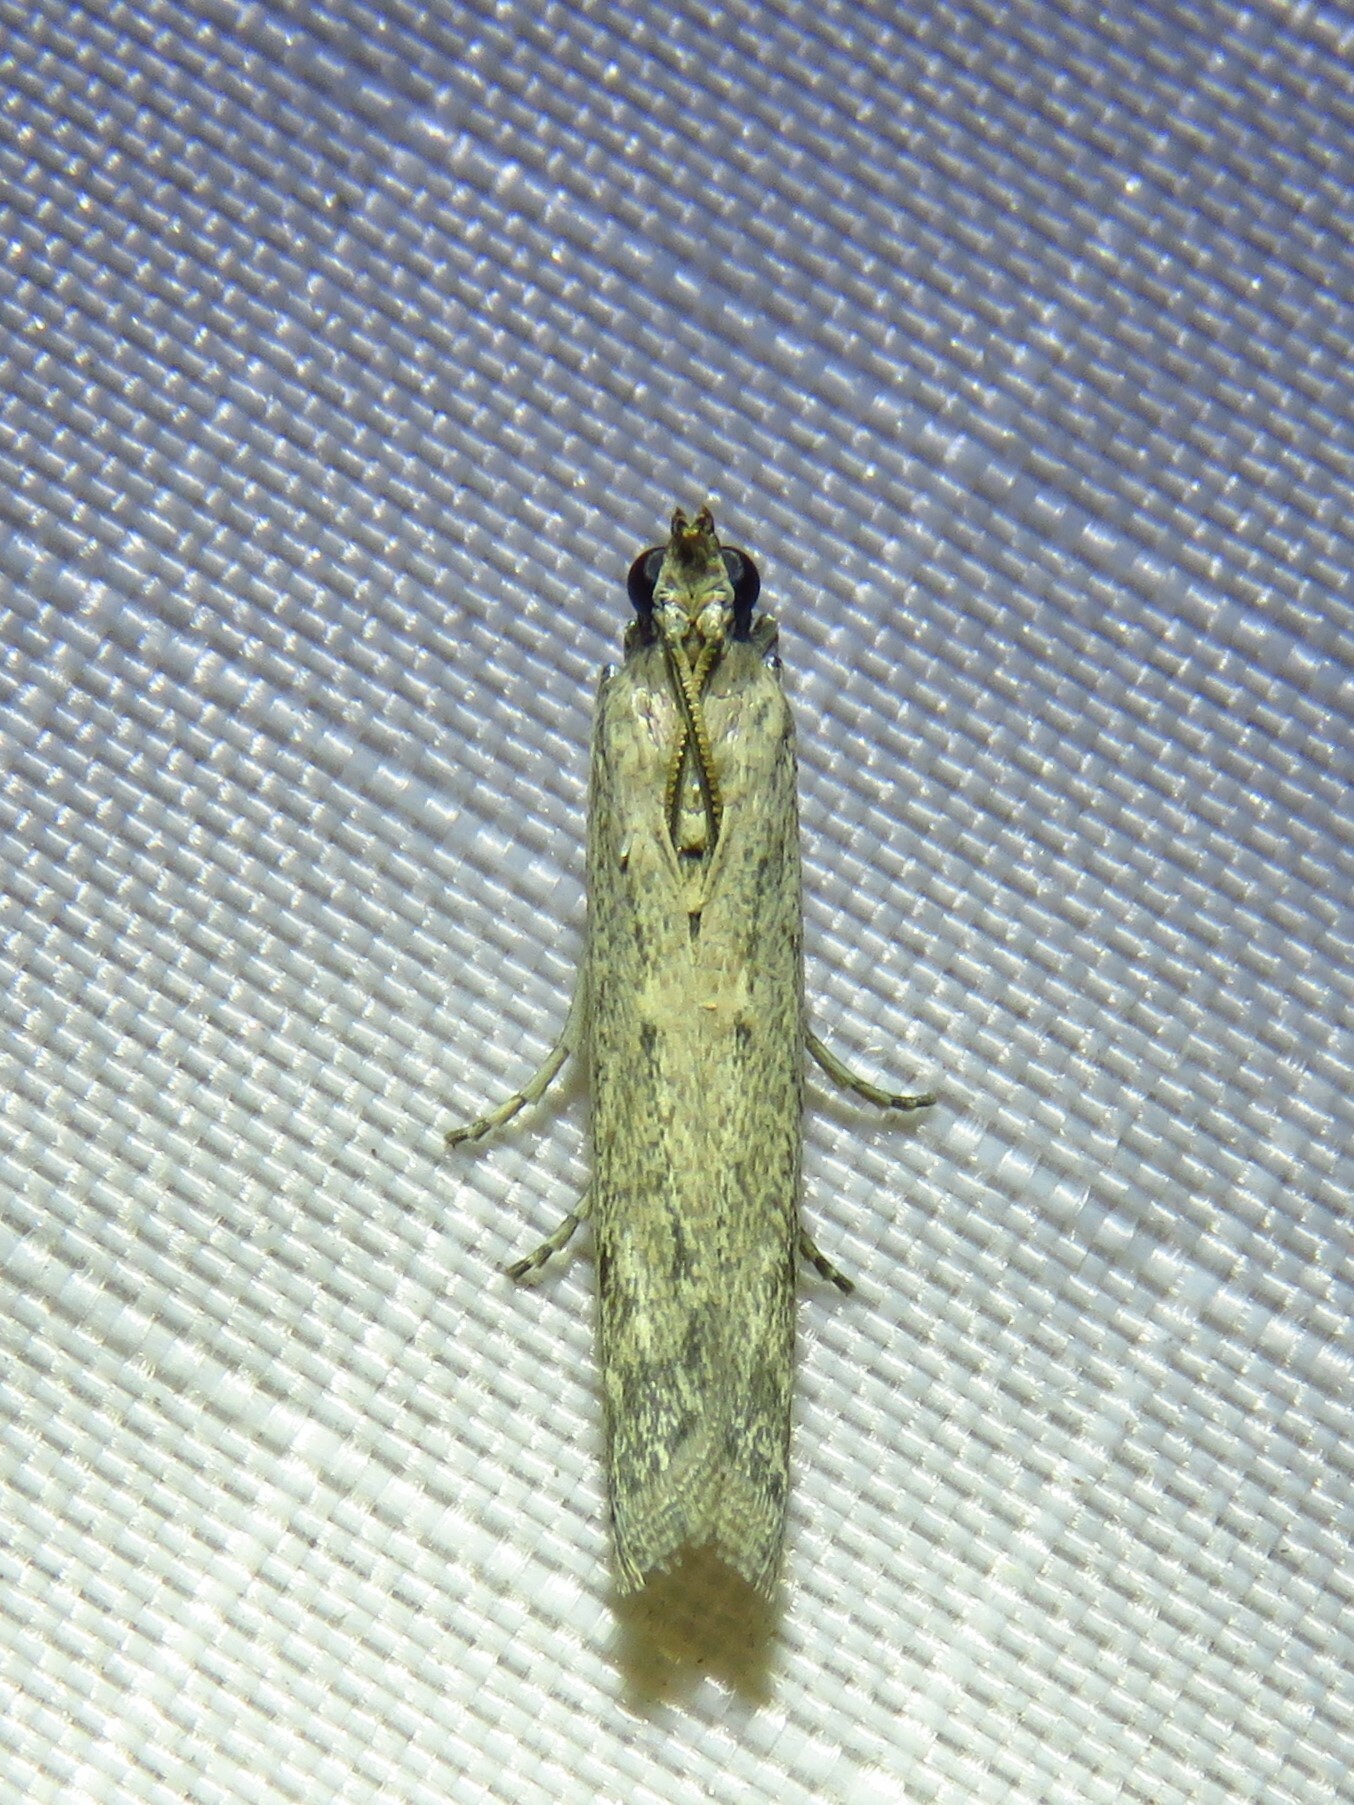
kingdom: Animalia
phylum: Arthropoda
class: Insecta
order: Lepidoptera
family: Pyralidae
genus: Homoeosoma
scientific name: Homoeosoma electella
